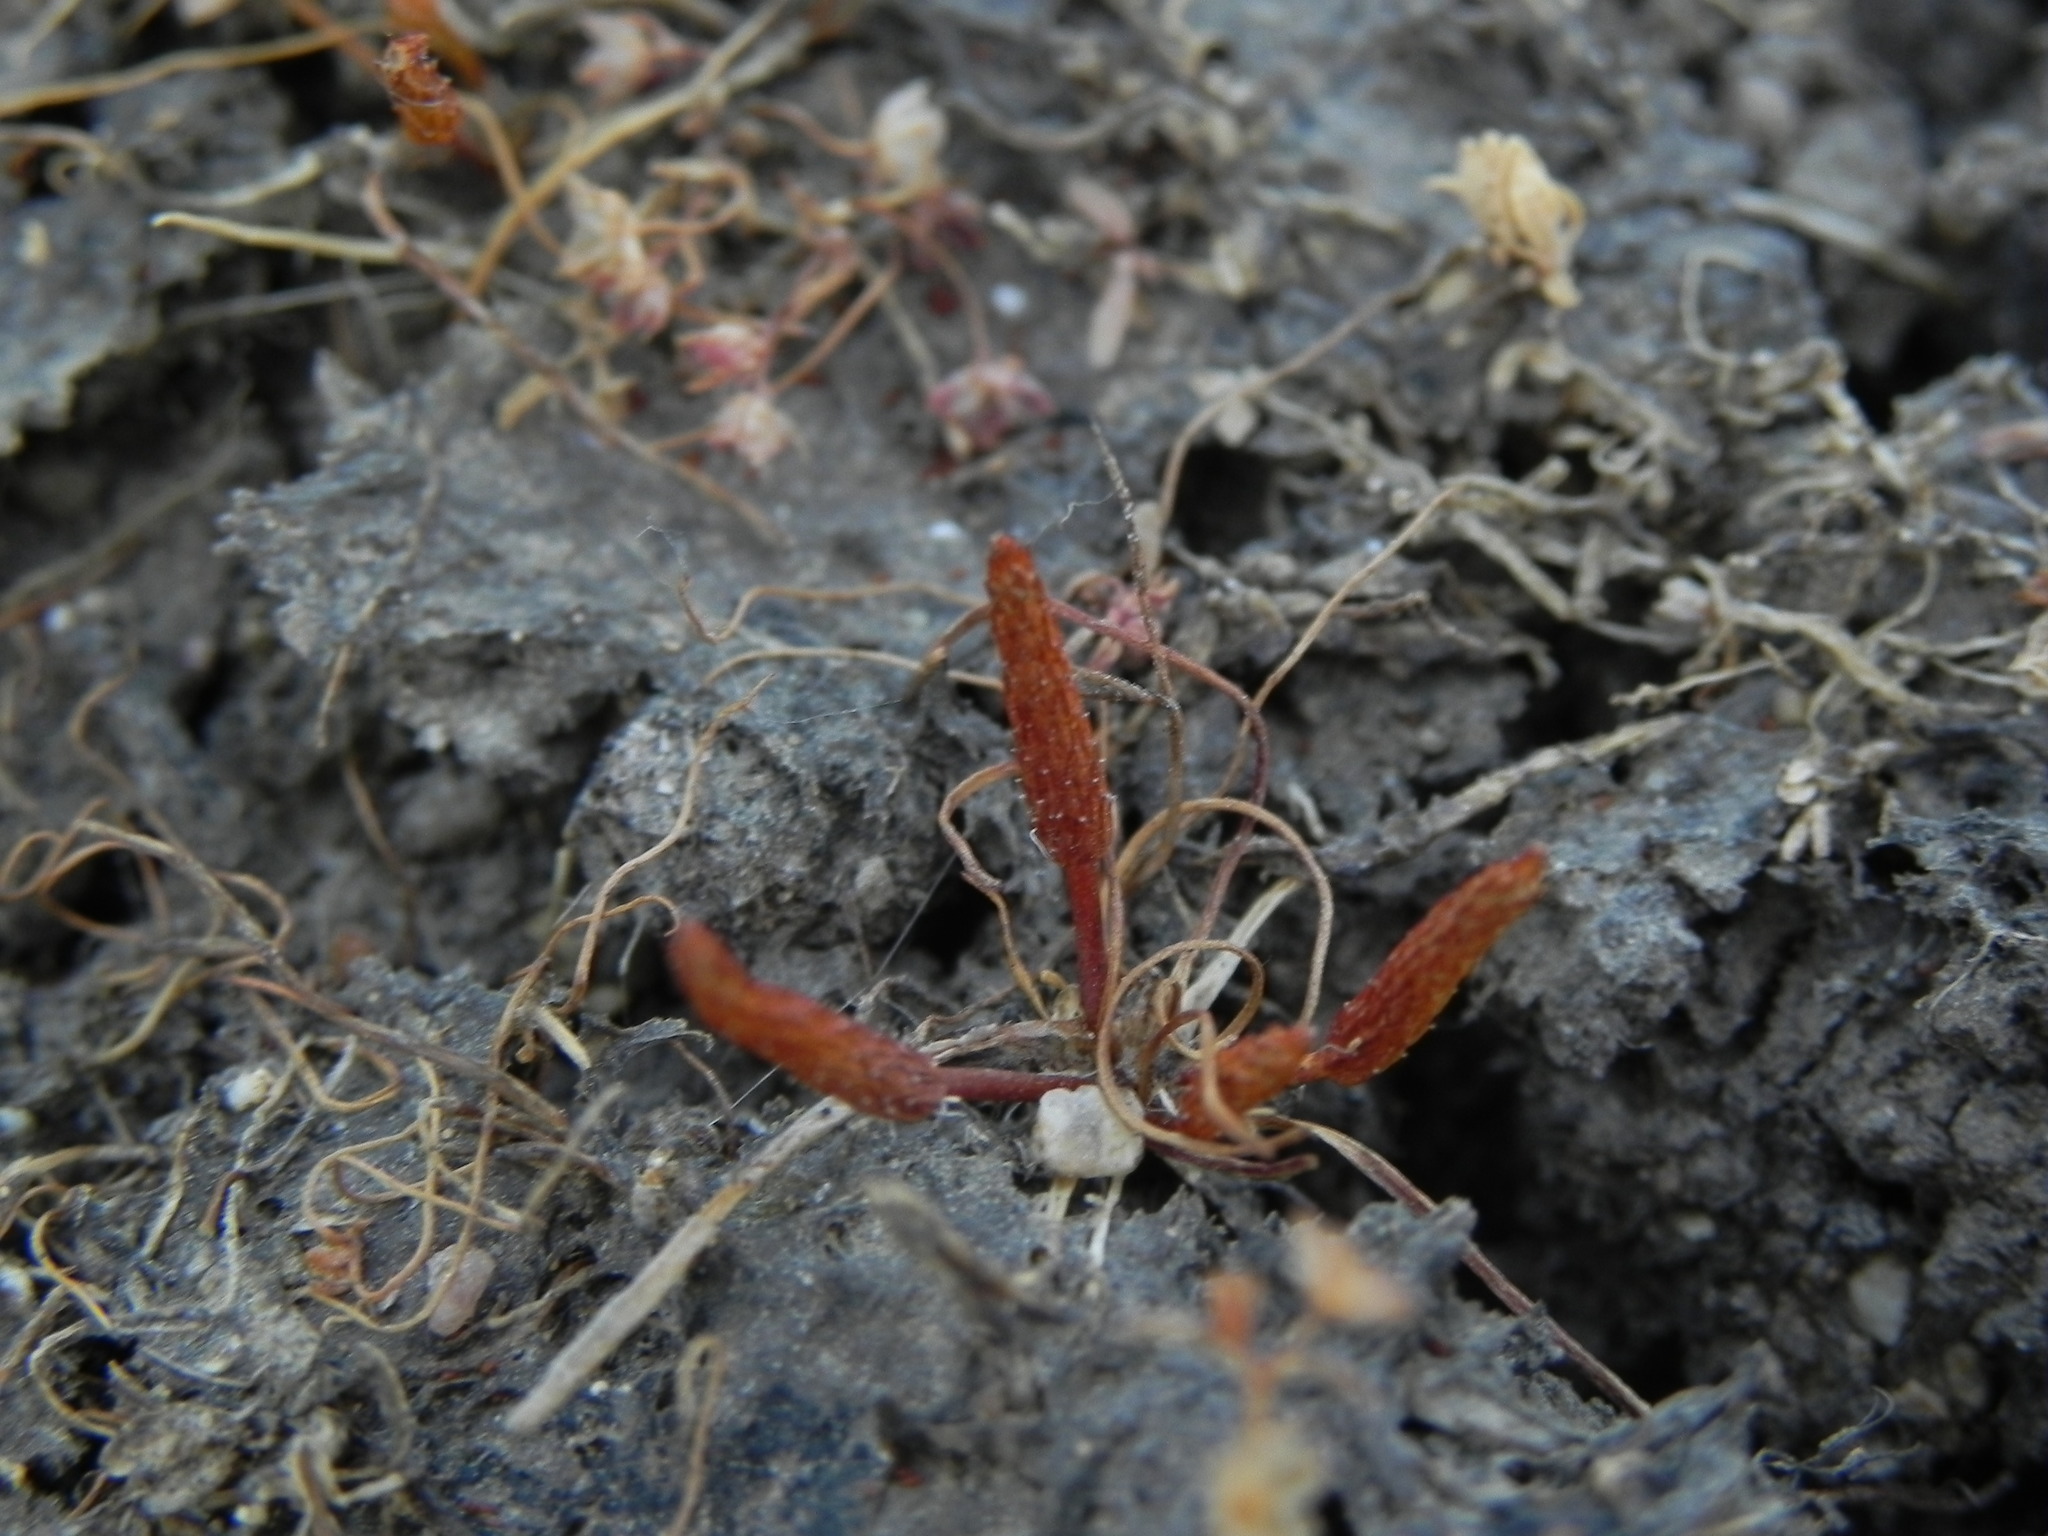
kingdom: Plantae
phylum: Tracheophyta
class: Magnoliopsida
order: Ranunculales
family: Ranunculaceae
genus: Myosurus
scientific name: Myosurus minimus
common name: Mousetail
